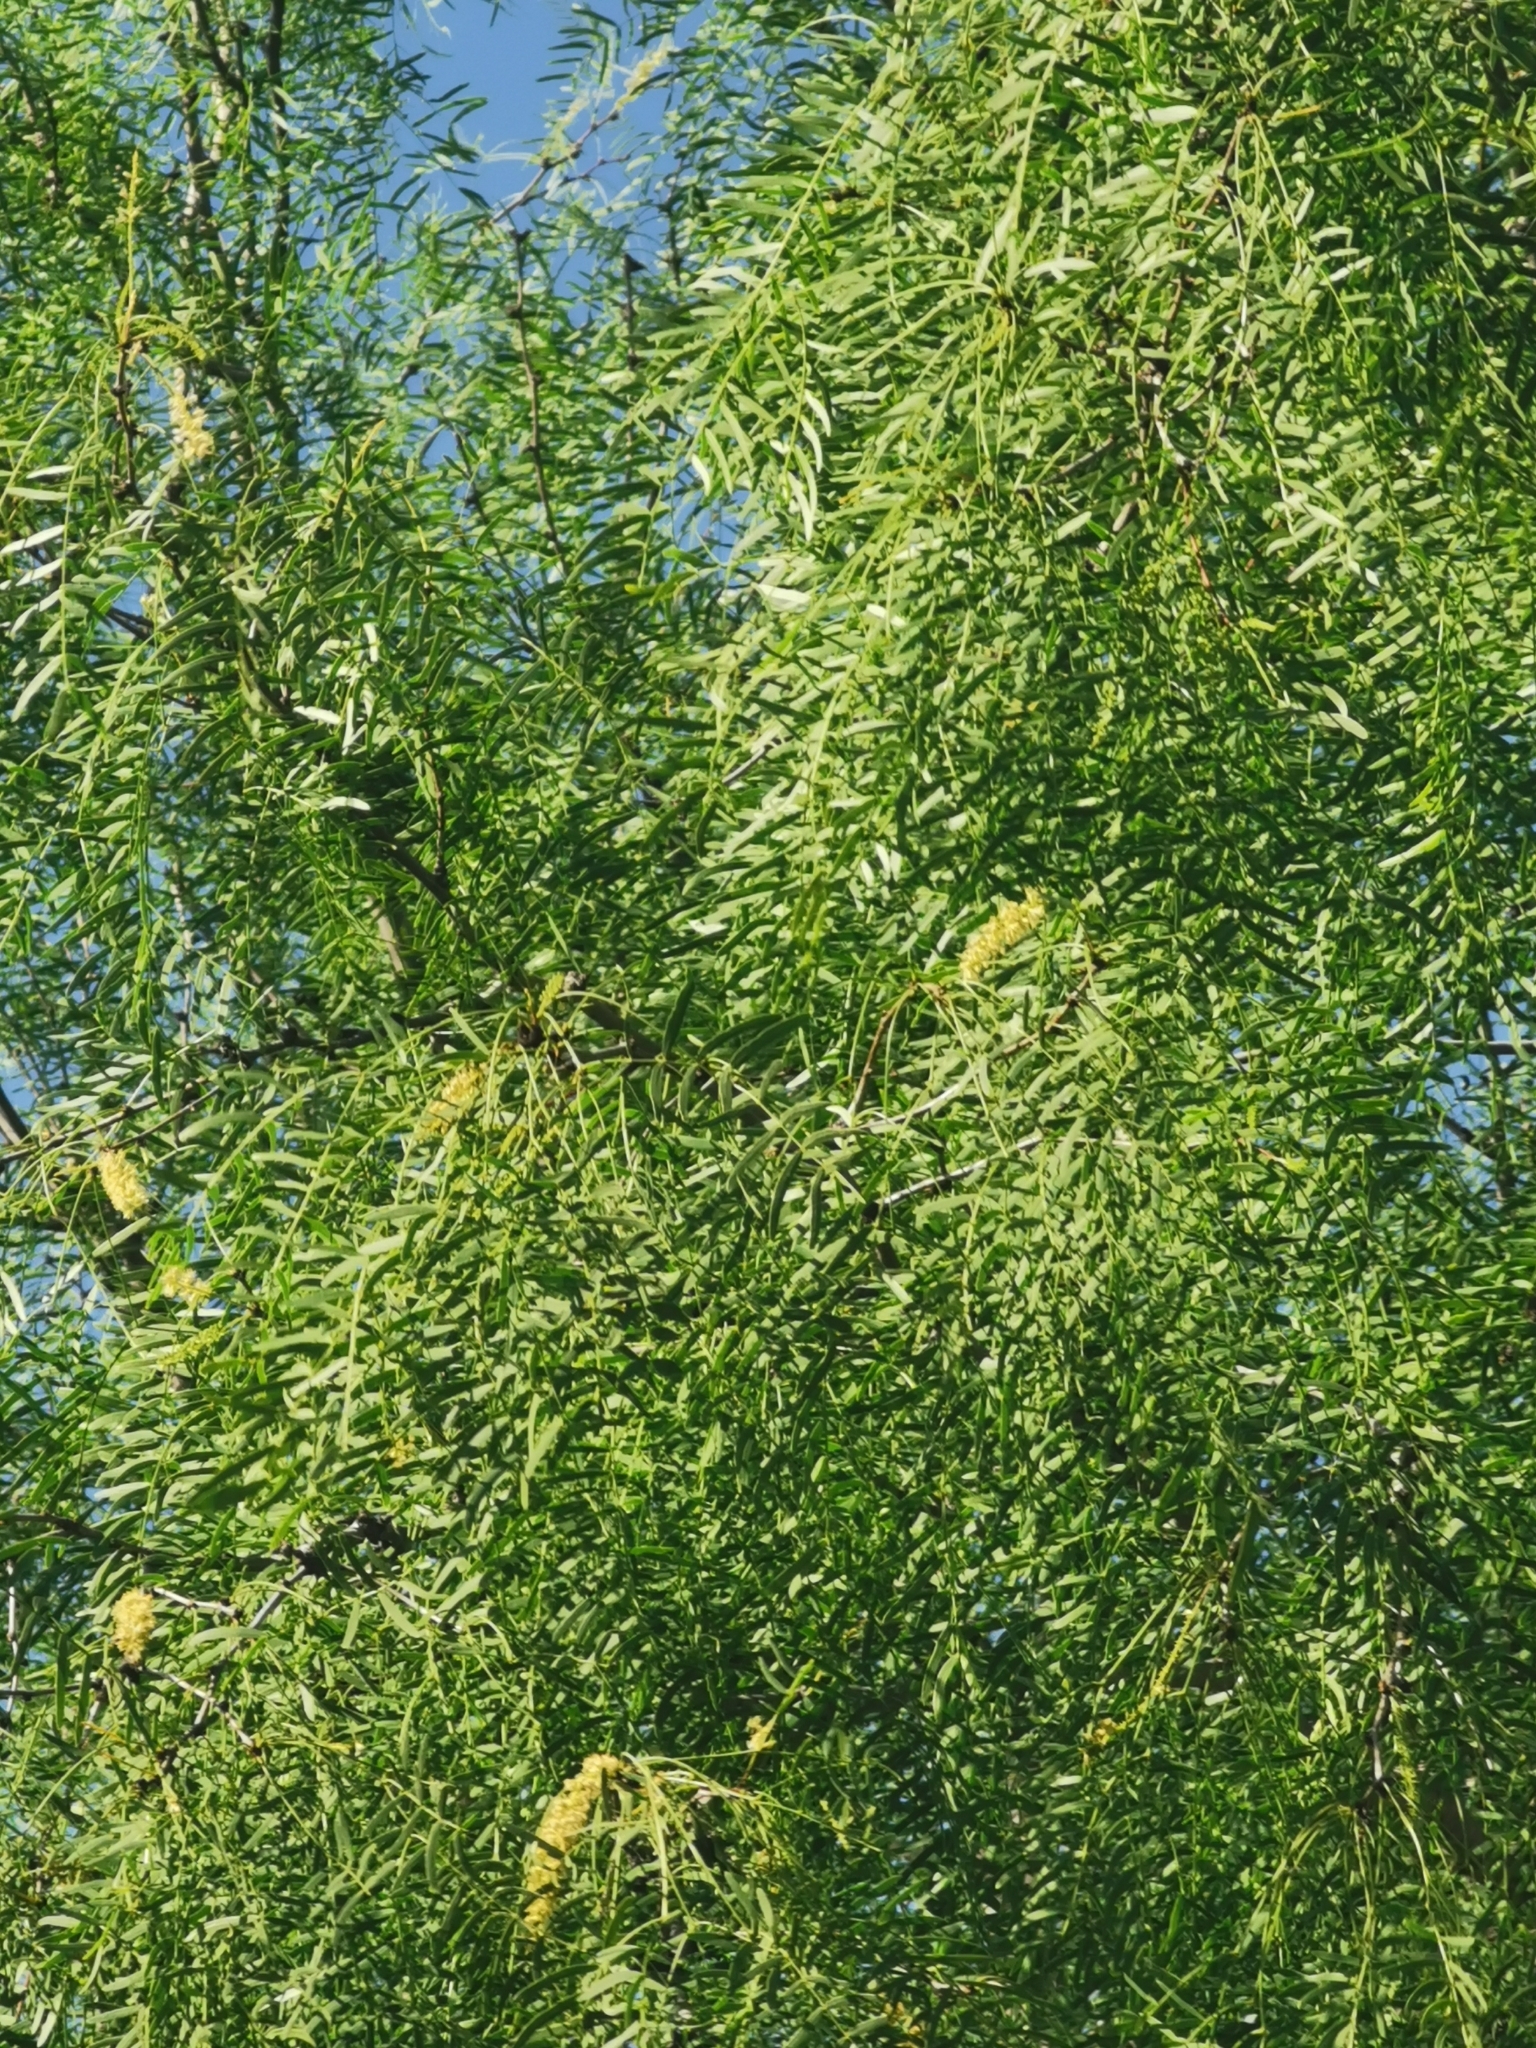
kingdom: Plantae
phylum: Tracheophyta
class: Magnoliopsida
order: Fabales
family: Fabaceae
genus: Prosopis
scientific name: Prosopis glandulosa
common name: Honey mesquite
